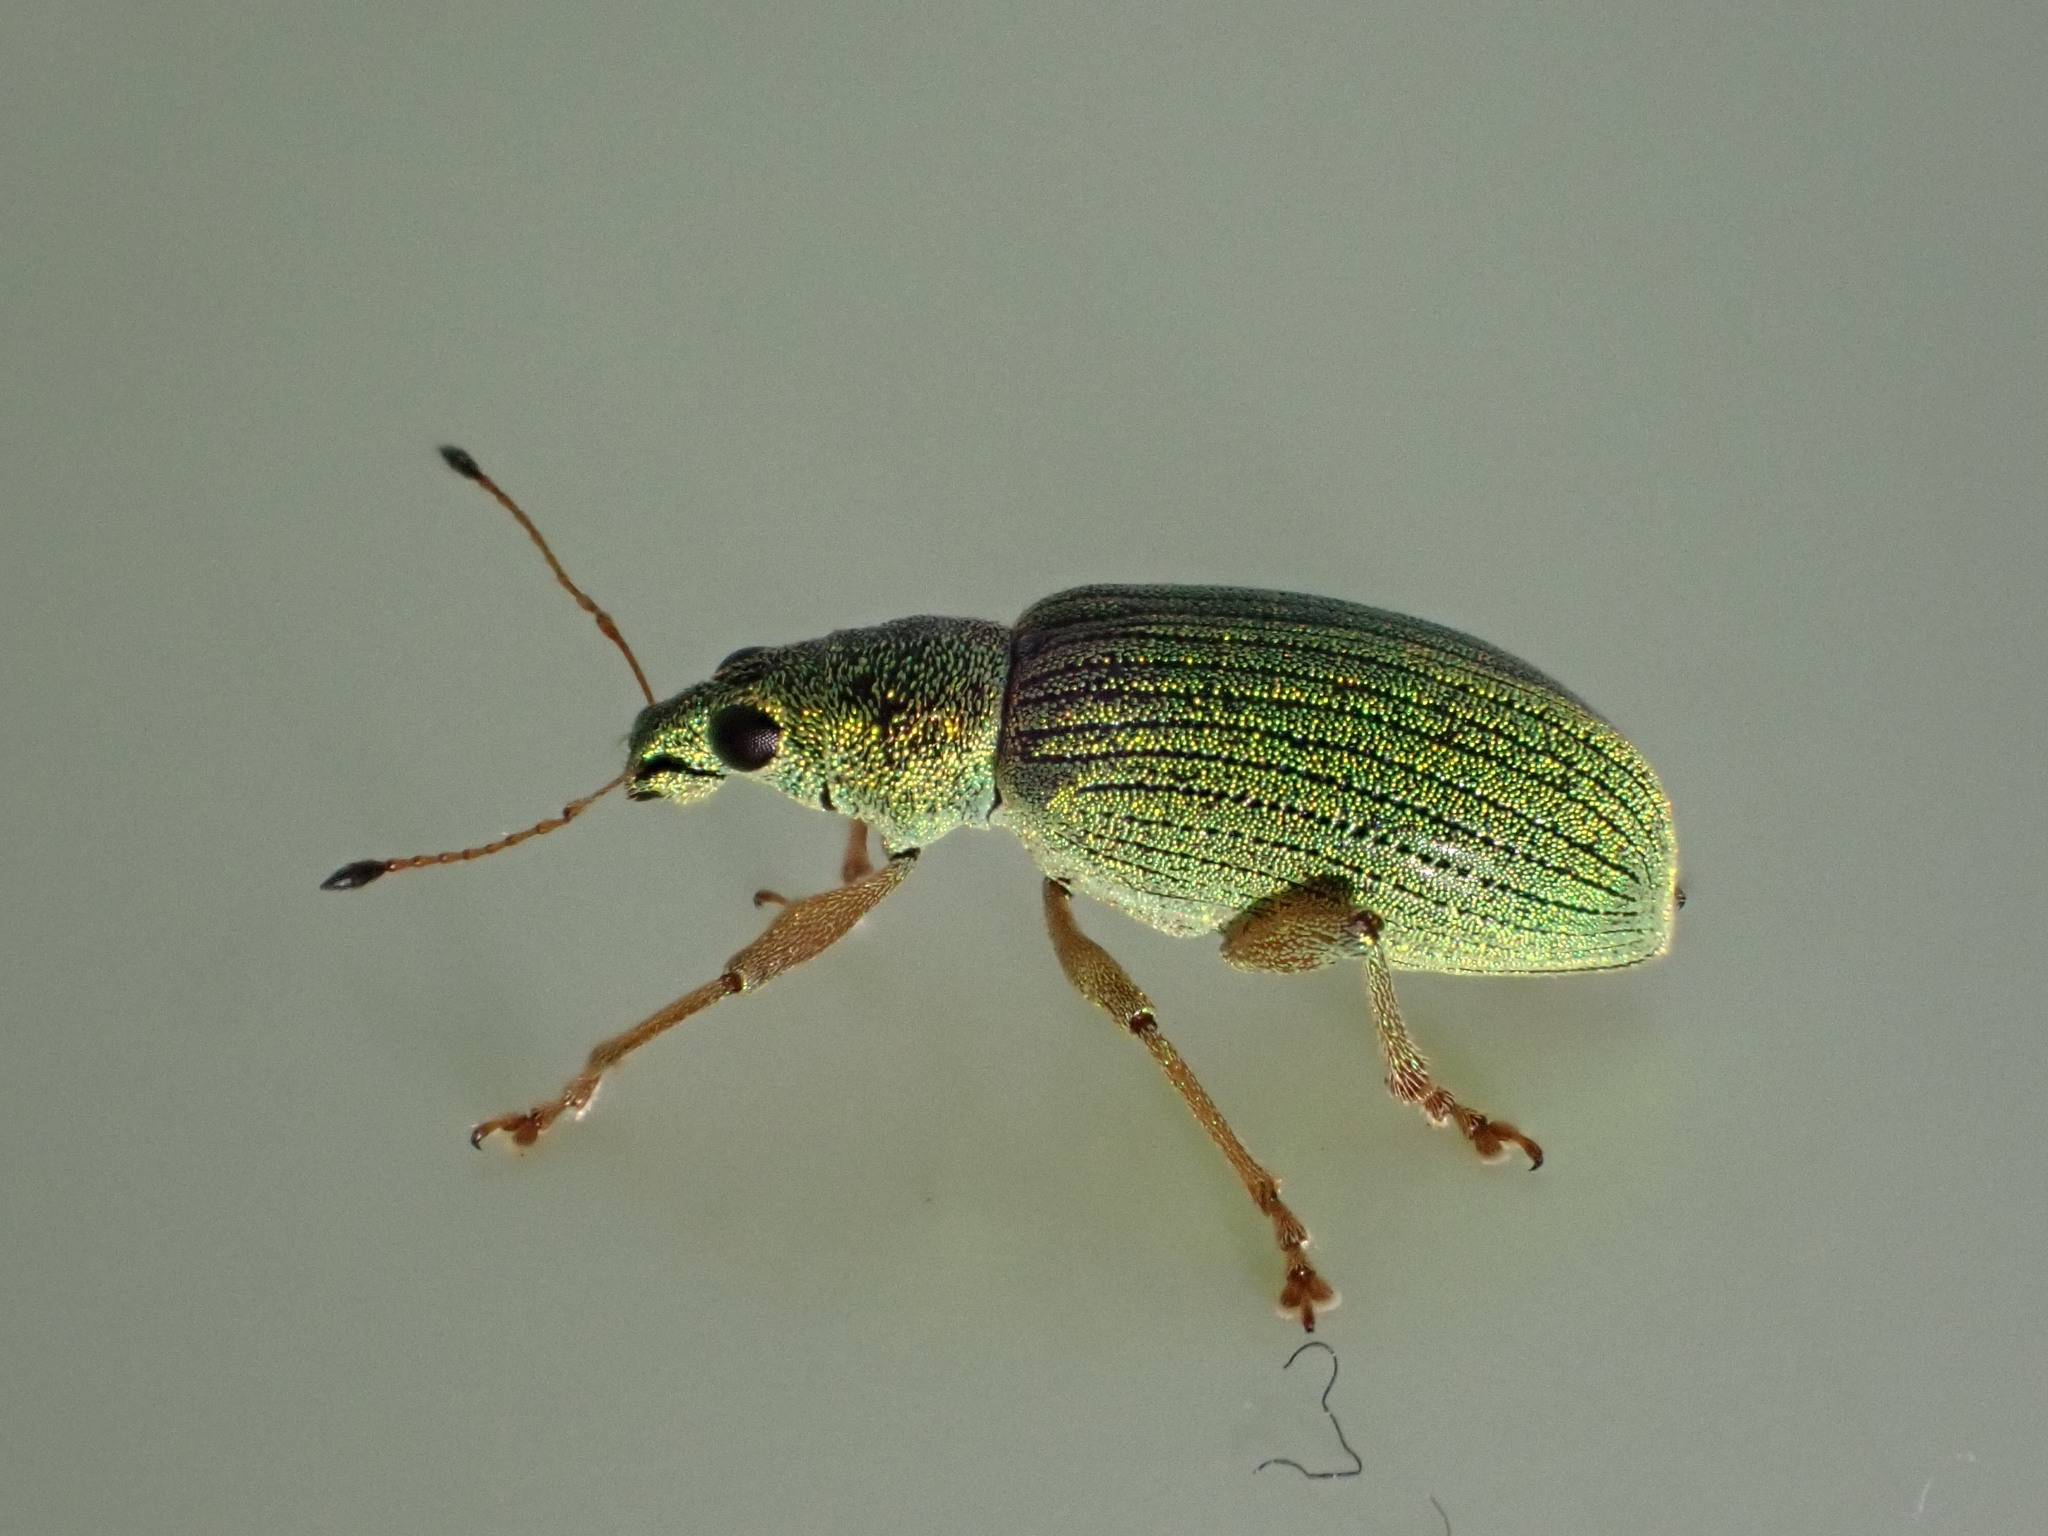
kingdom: Animalia
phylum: Arthropoda
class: Insecta
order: Coleoptera
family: Curculionidae
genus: Polydrusus
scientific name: Polydrusus formosus
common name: Weevil
